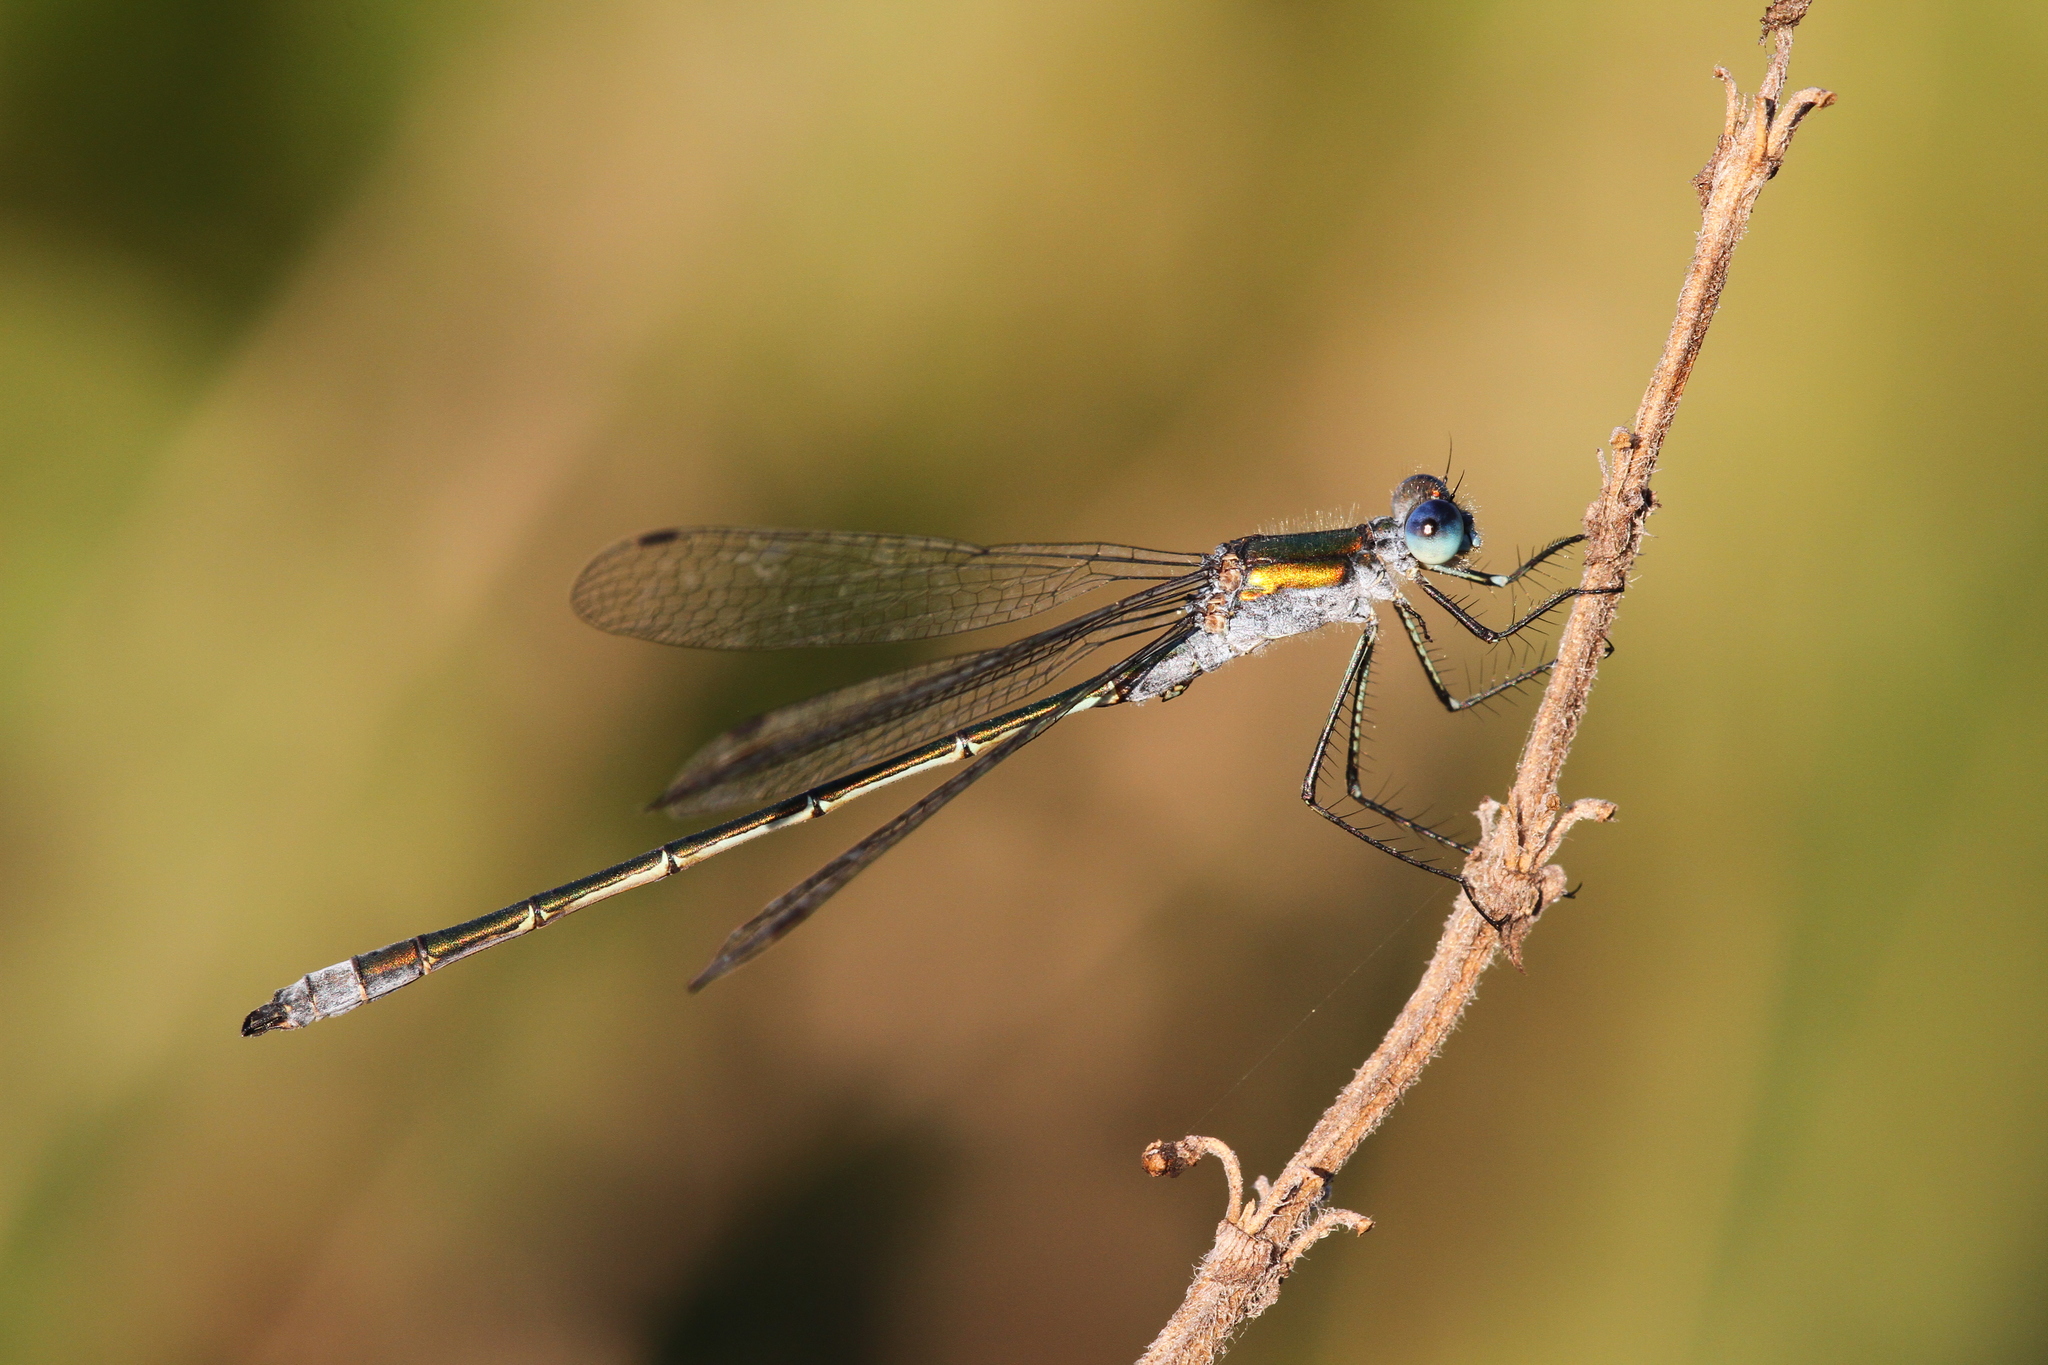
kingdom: Animalia
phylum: Arthropoda
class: Insecta
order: Odonata
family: Lestidae
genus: Lestes
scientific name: Lestes sponsa
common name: Common spreadwing
